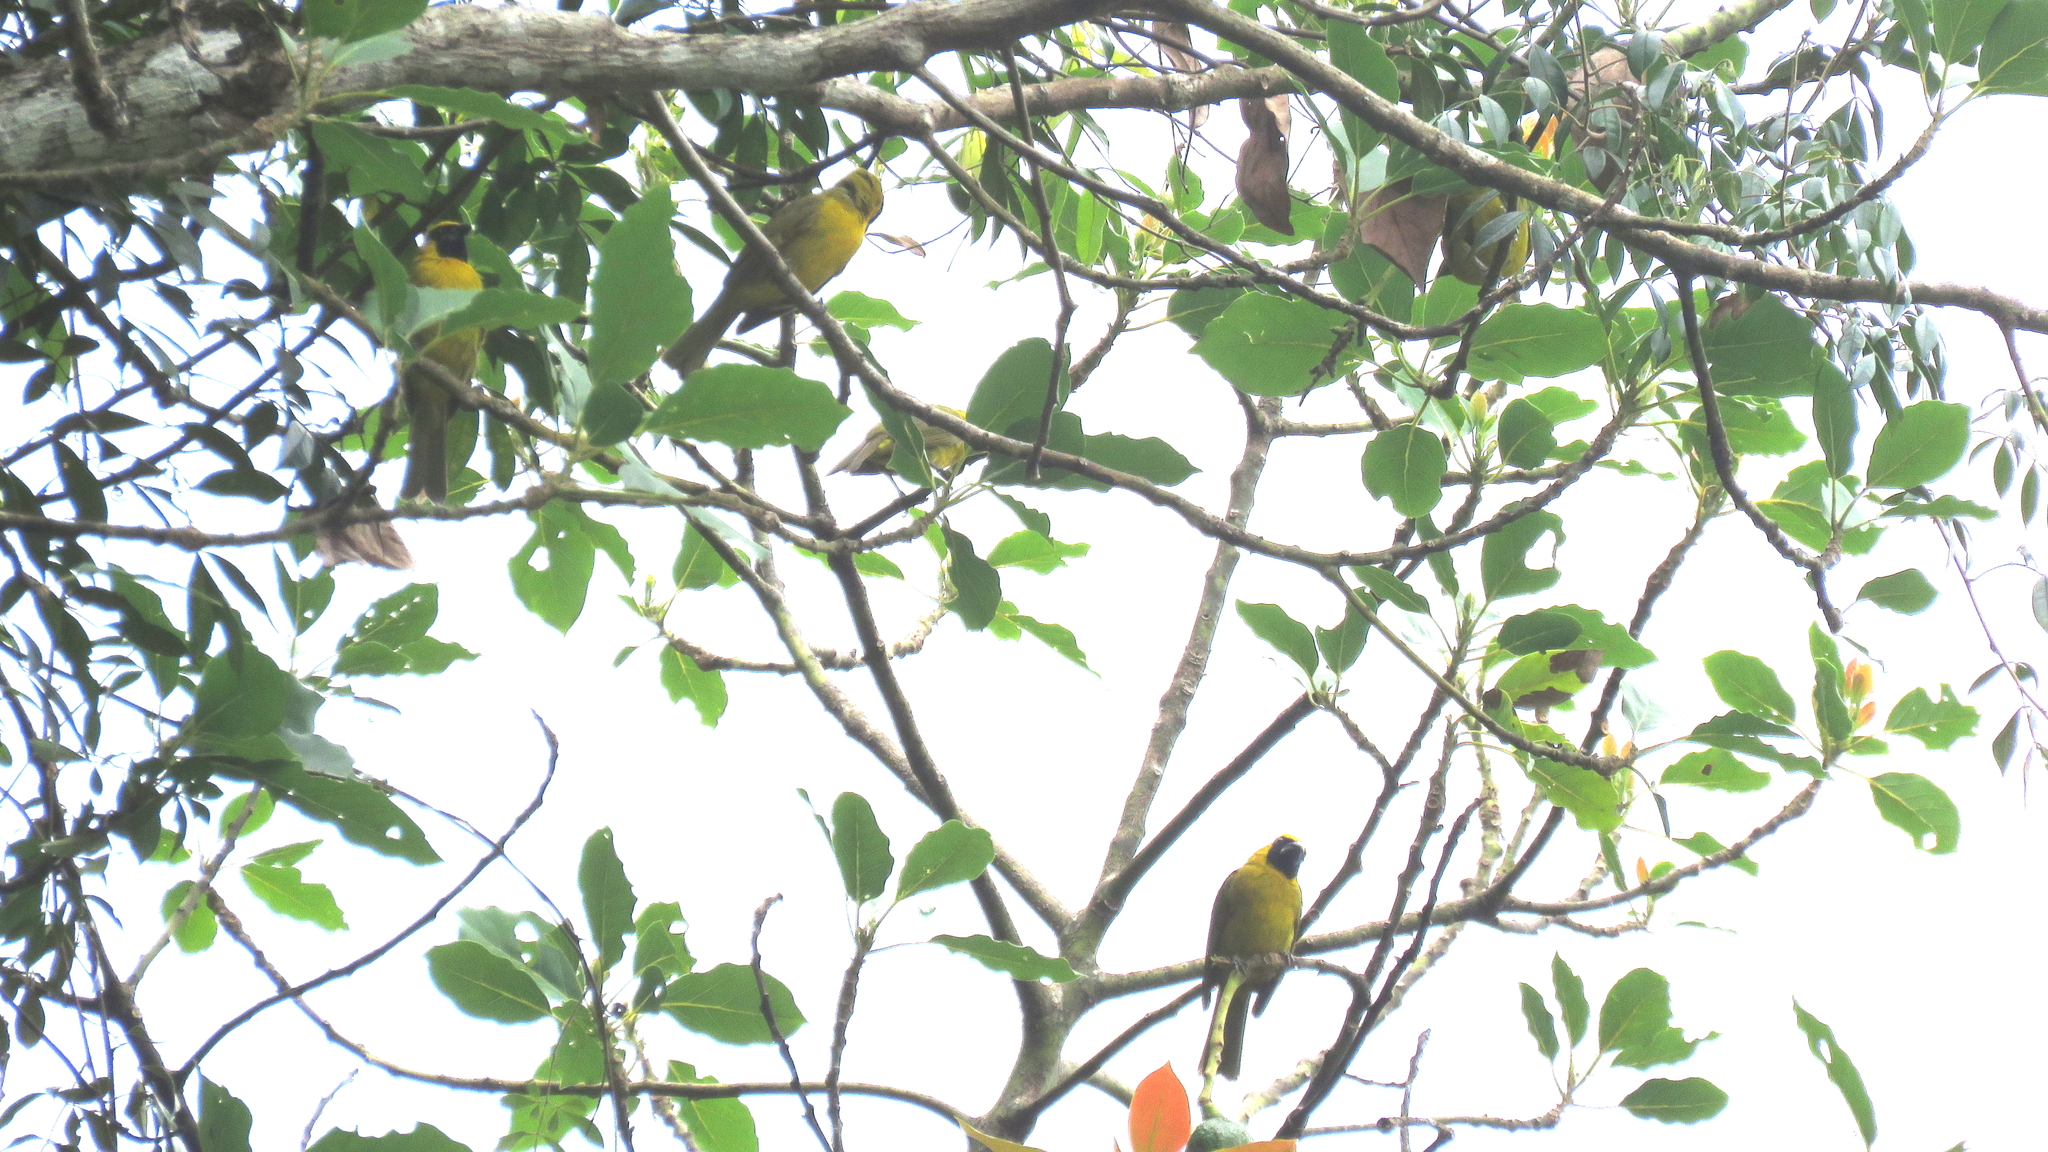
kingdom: Animalia
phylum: Chordata
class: Aves
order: Passeriformes
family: Cardinalidae
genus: Caryothraustes
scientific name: Caryothraustes canadensis
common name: Yellow-green grosbeak
